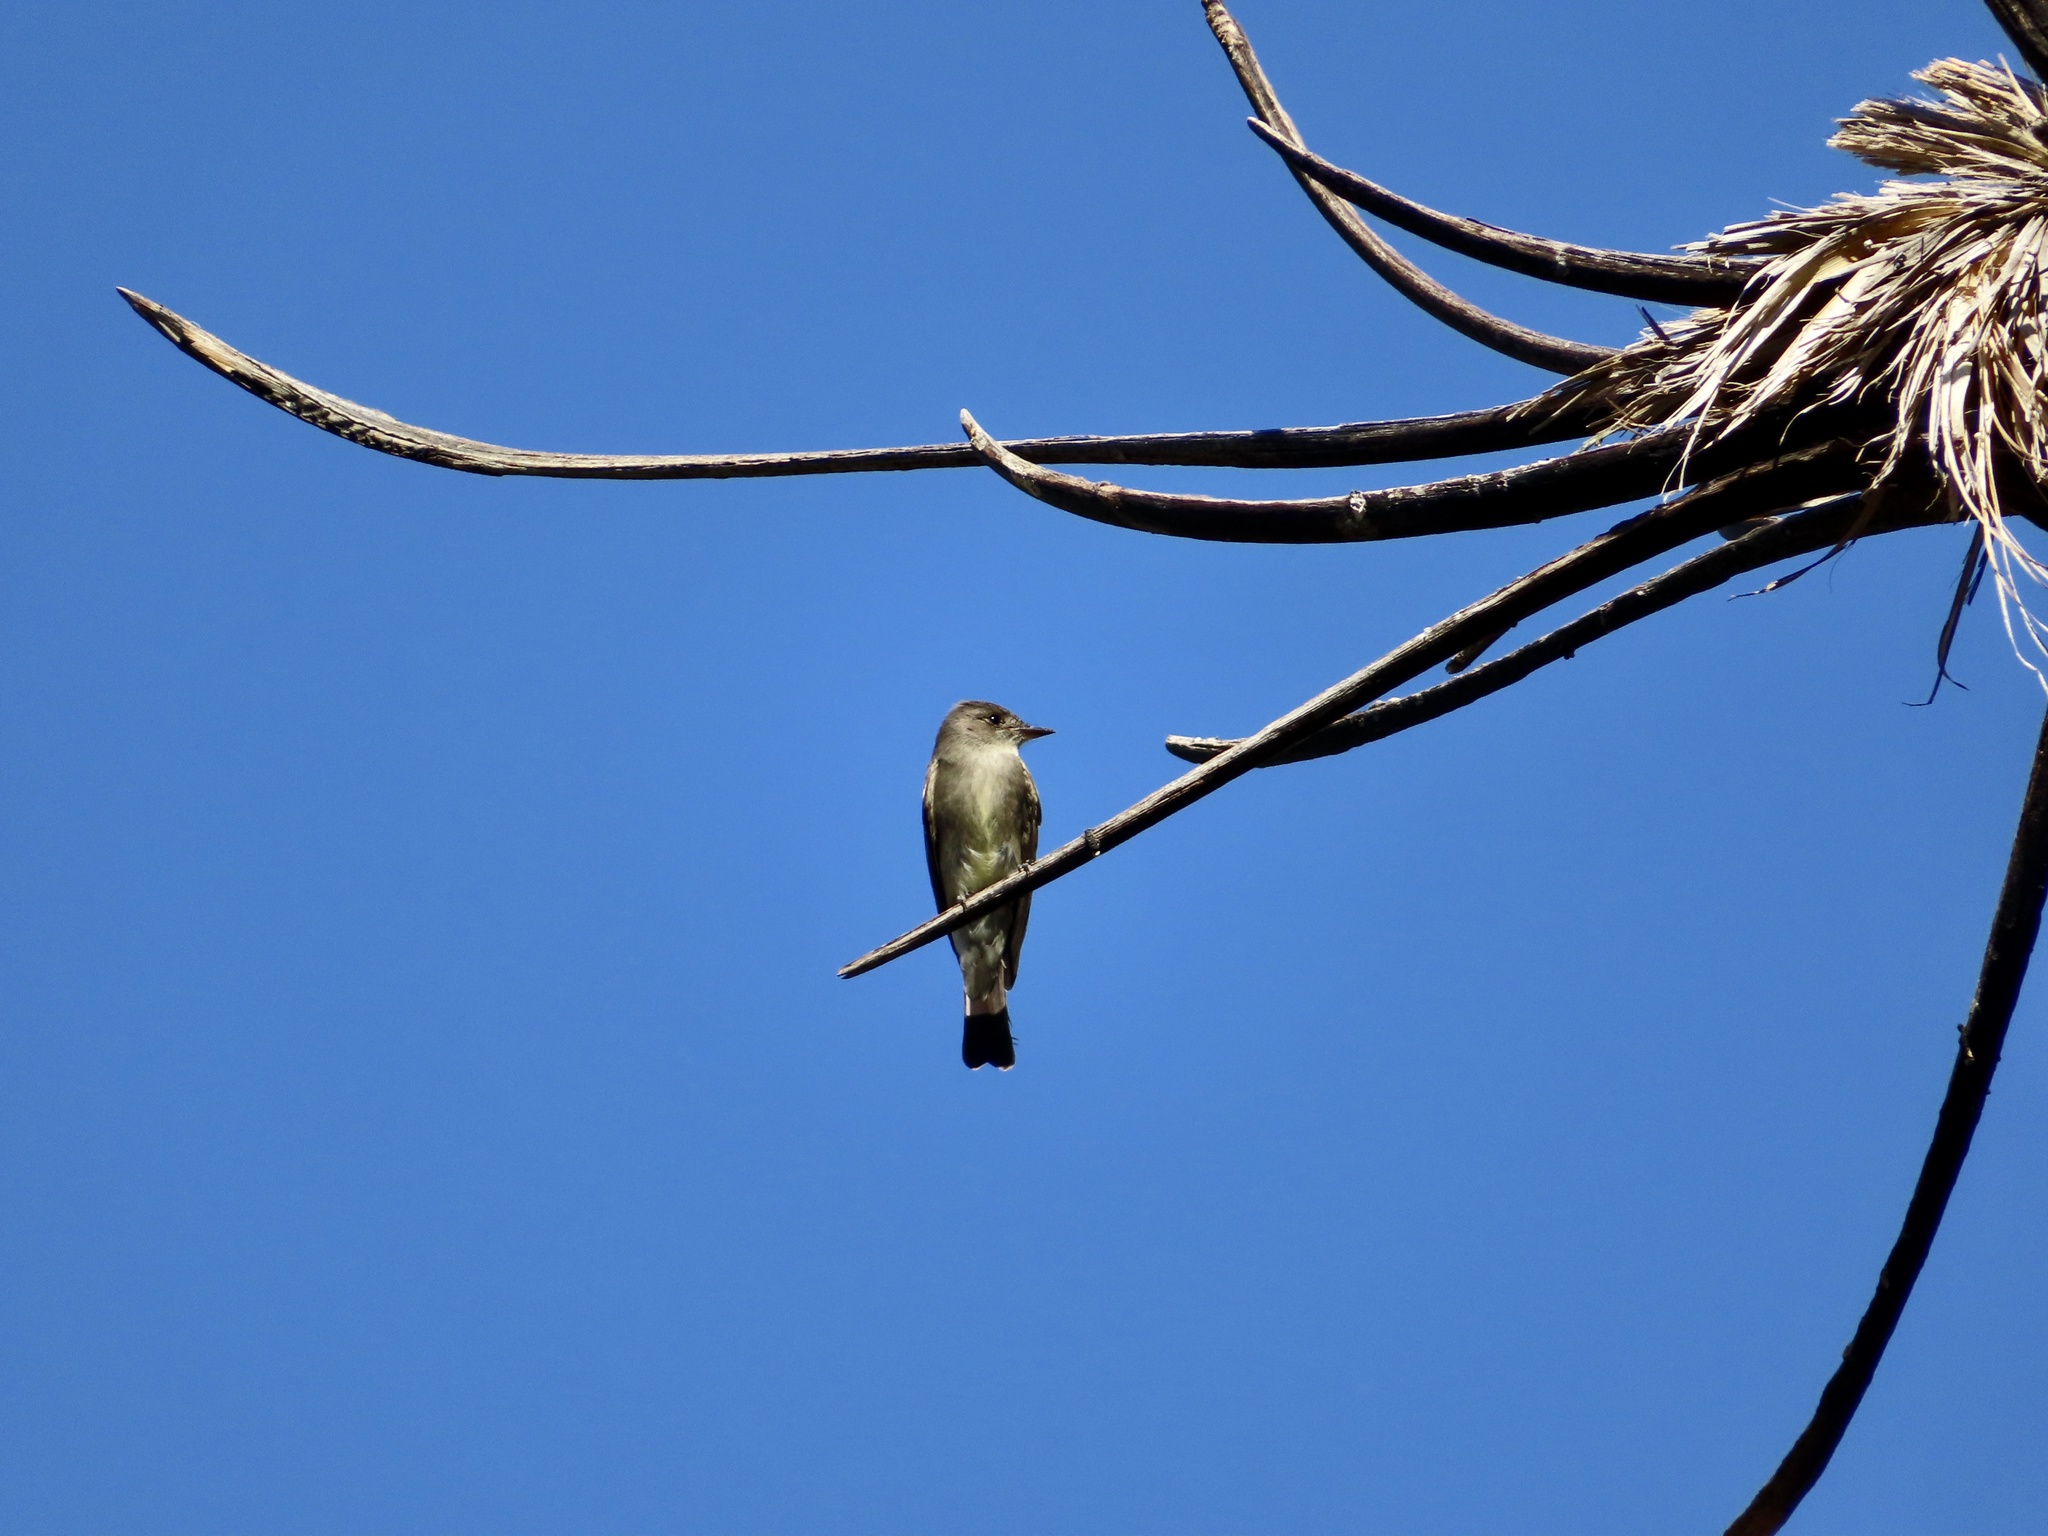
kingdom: Animalia
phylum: Chordata
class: Aves
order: Passeriformes
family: Tyrannidae
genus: Contopus
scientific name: Contopus sordidulus
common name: Western wood-pewee
